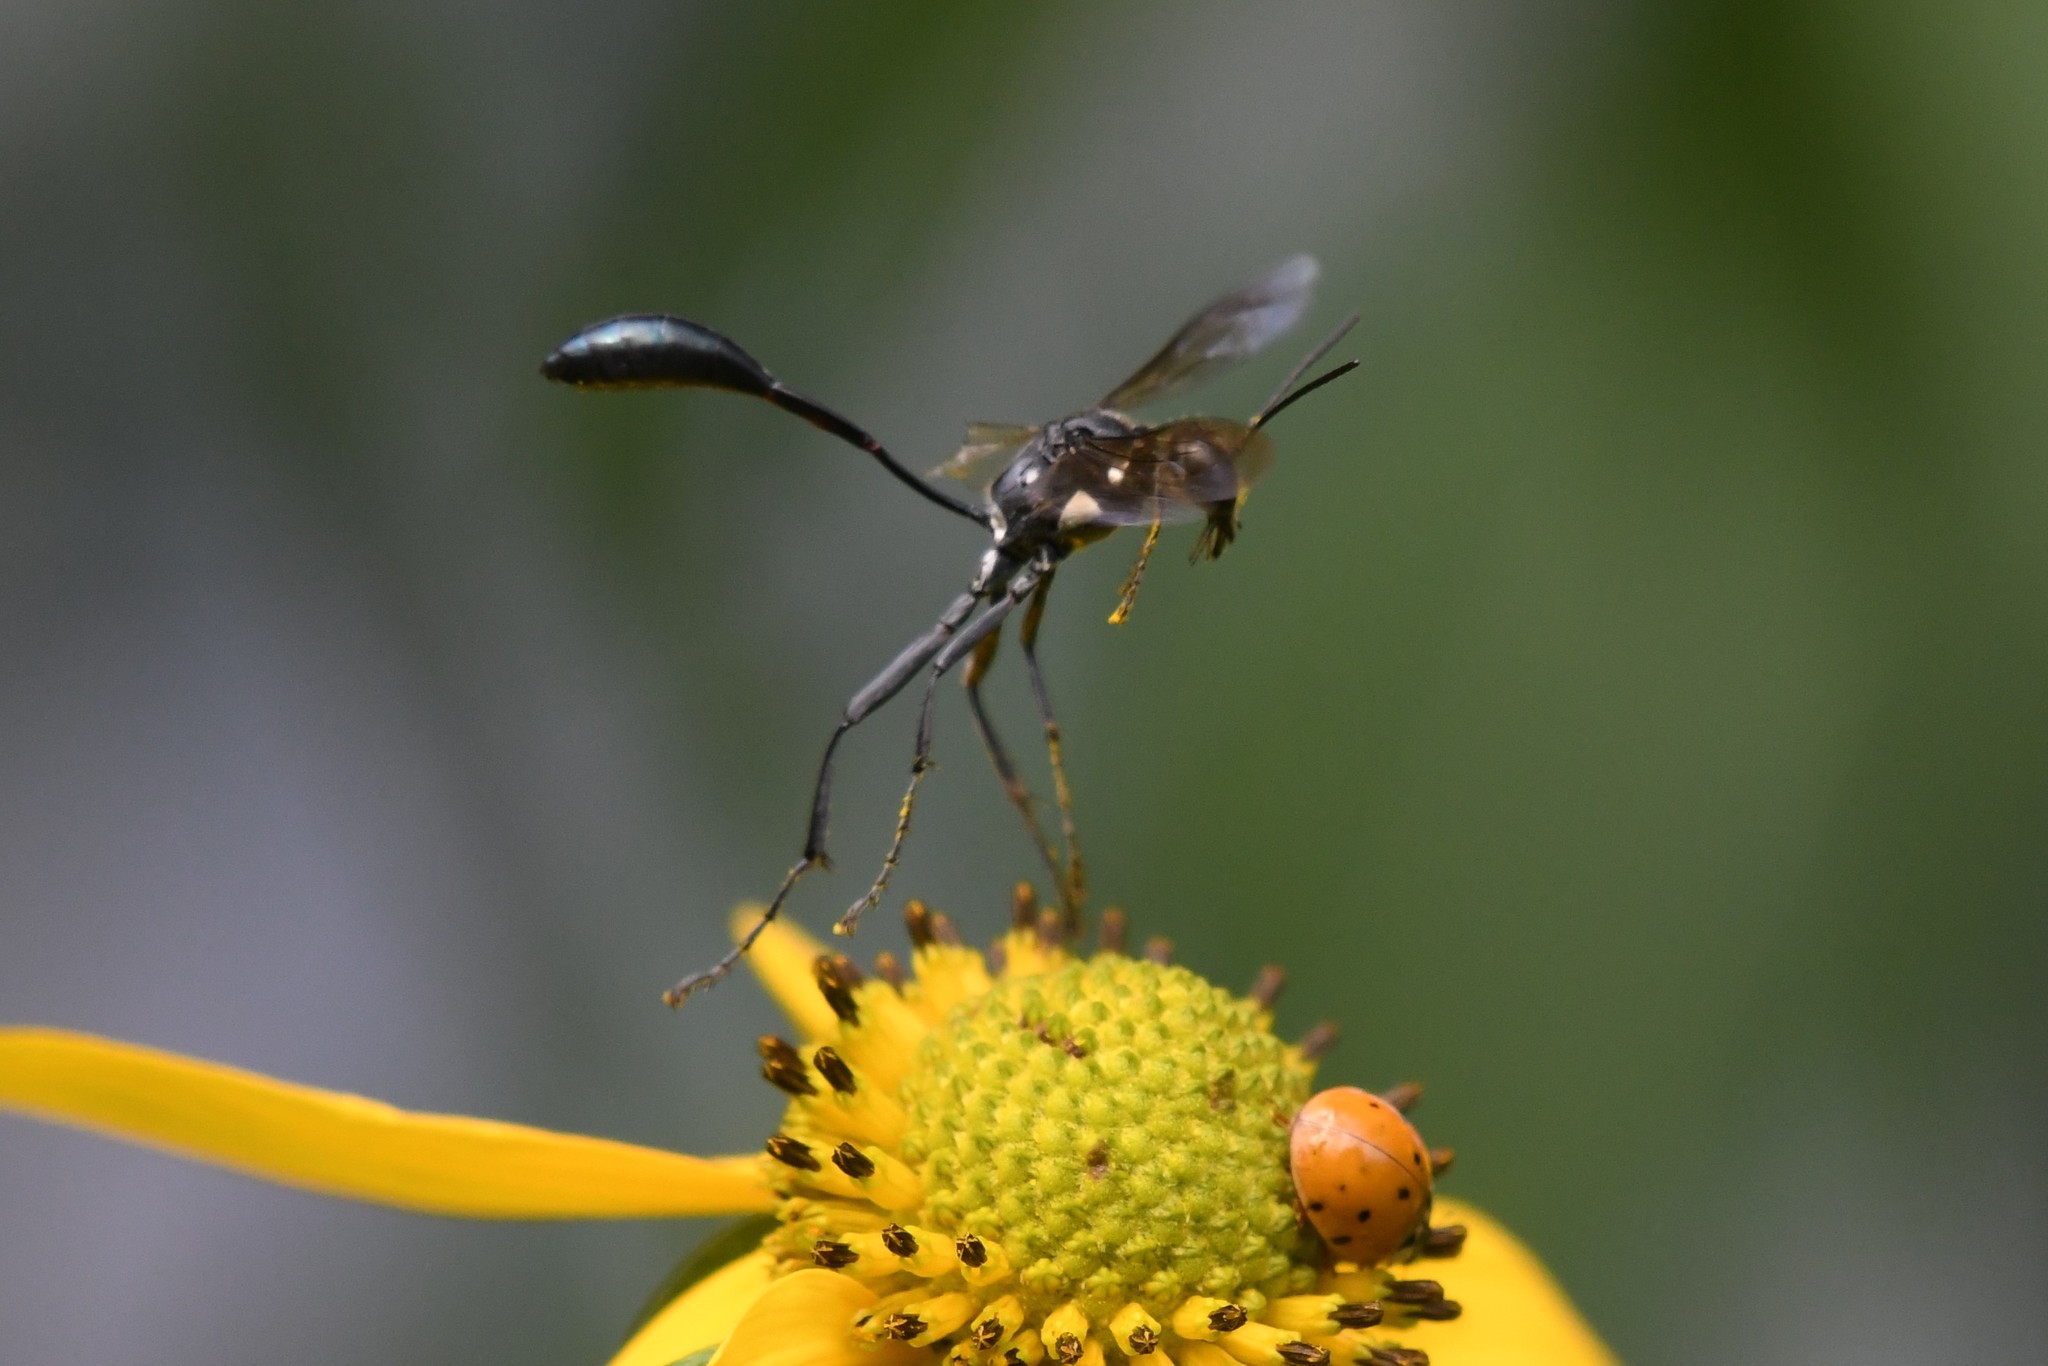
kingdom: Animalia
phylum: Arthropoda
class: Insecta
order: Hymenoptera
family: Sphecidae
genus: Eremnophila
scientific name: Eremnophila aureonotata
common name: Gold-marked thread-waisted wasp
